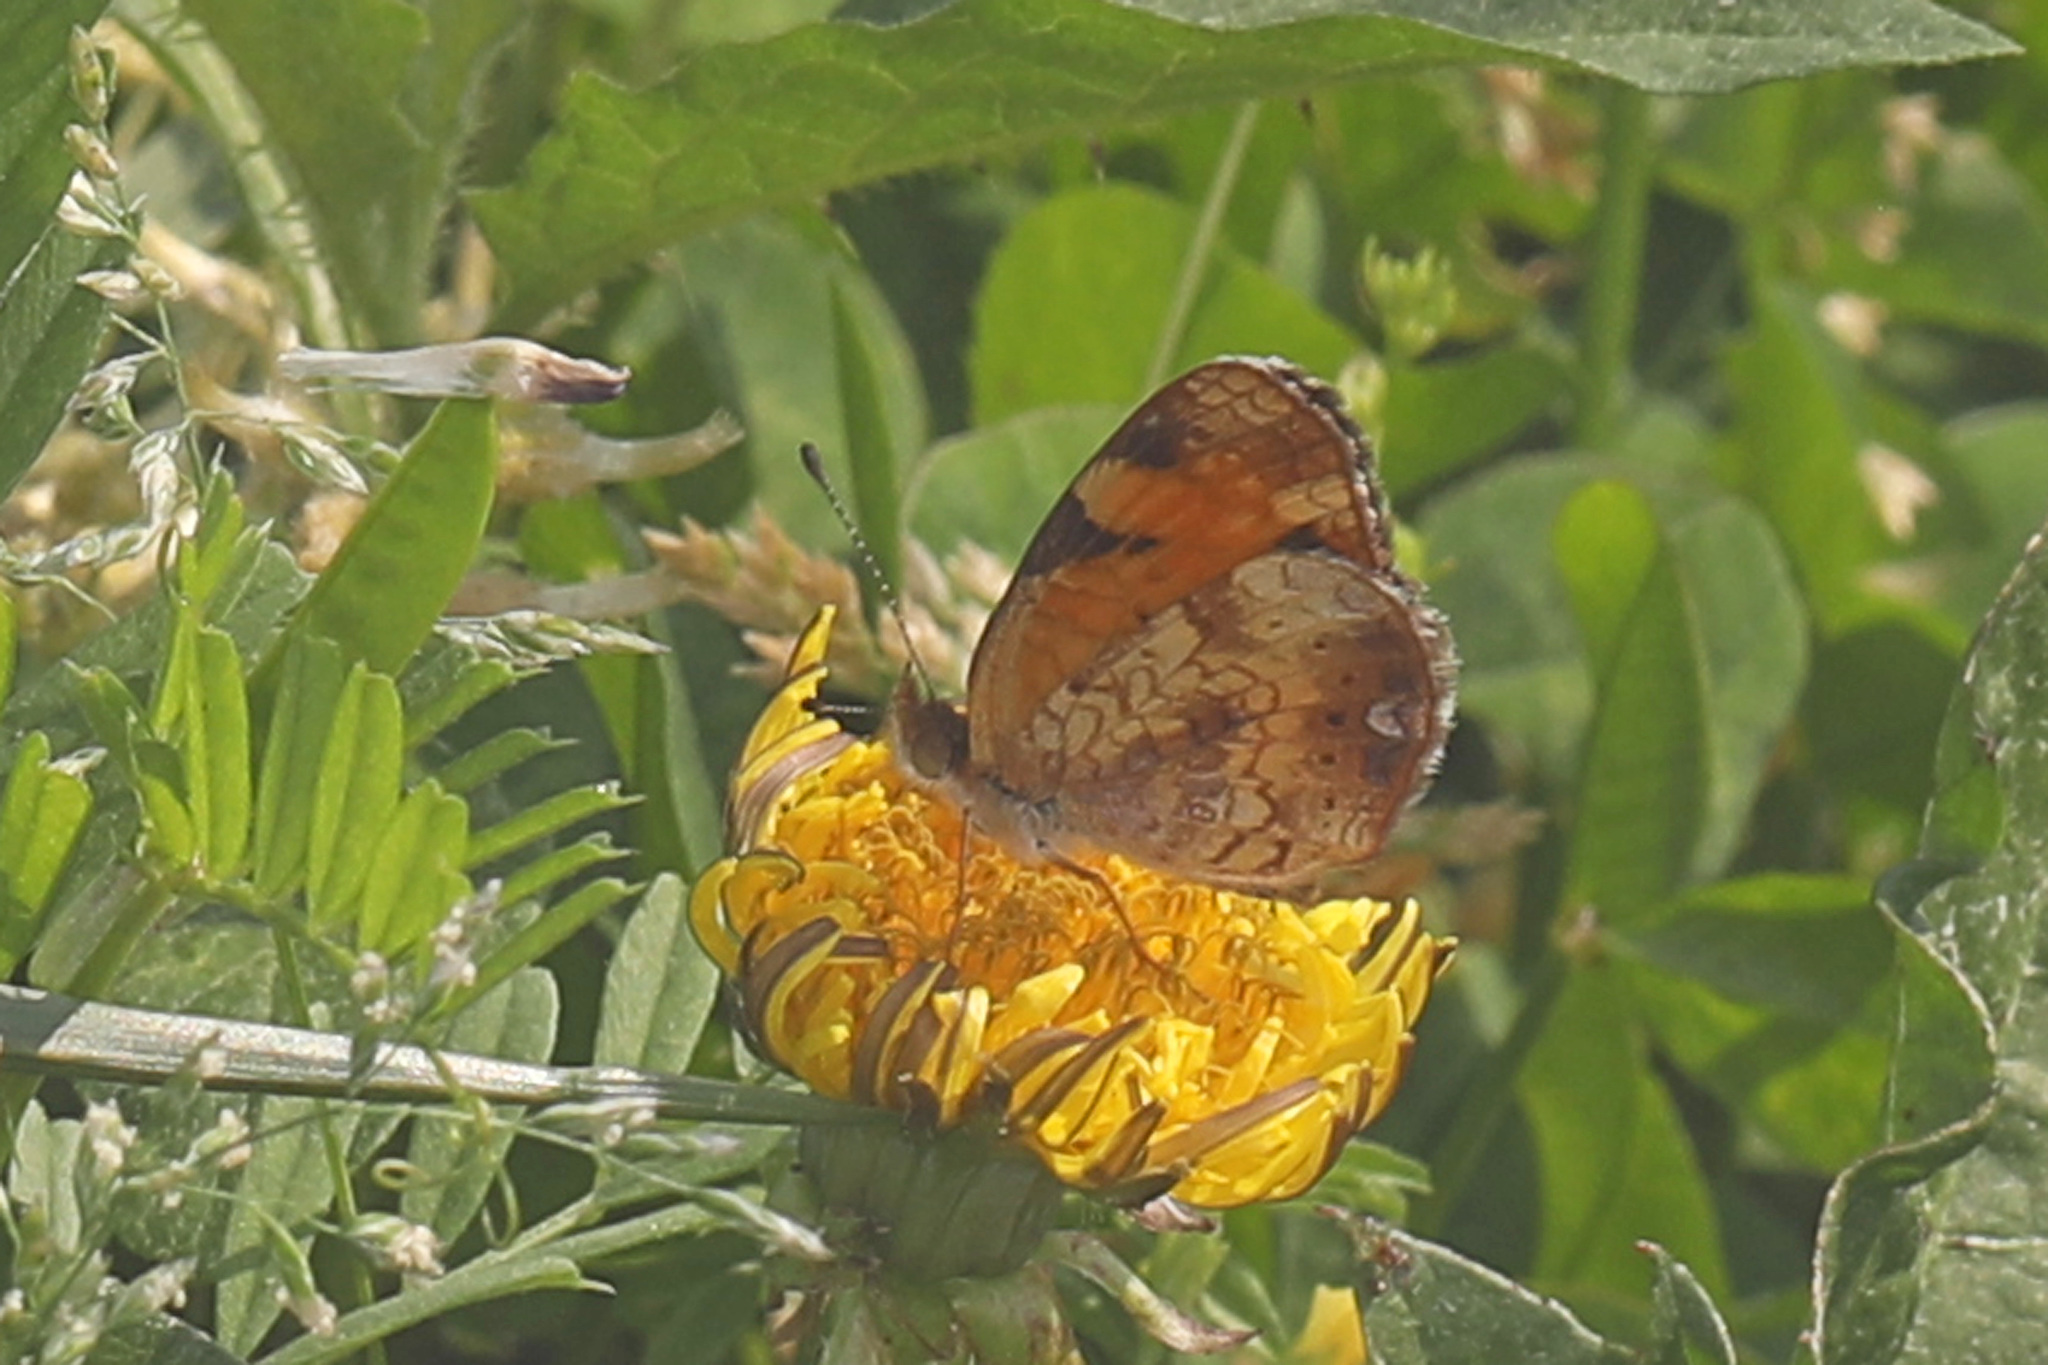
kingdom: Animalia
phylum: Arthropoda
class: Insecta
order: Lepidoptera
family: Nymphalidae
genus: Phyciodes
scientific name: Phyciodes tharos
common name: Pearl crescent
